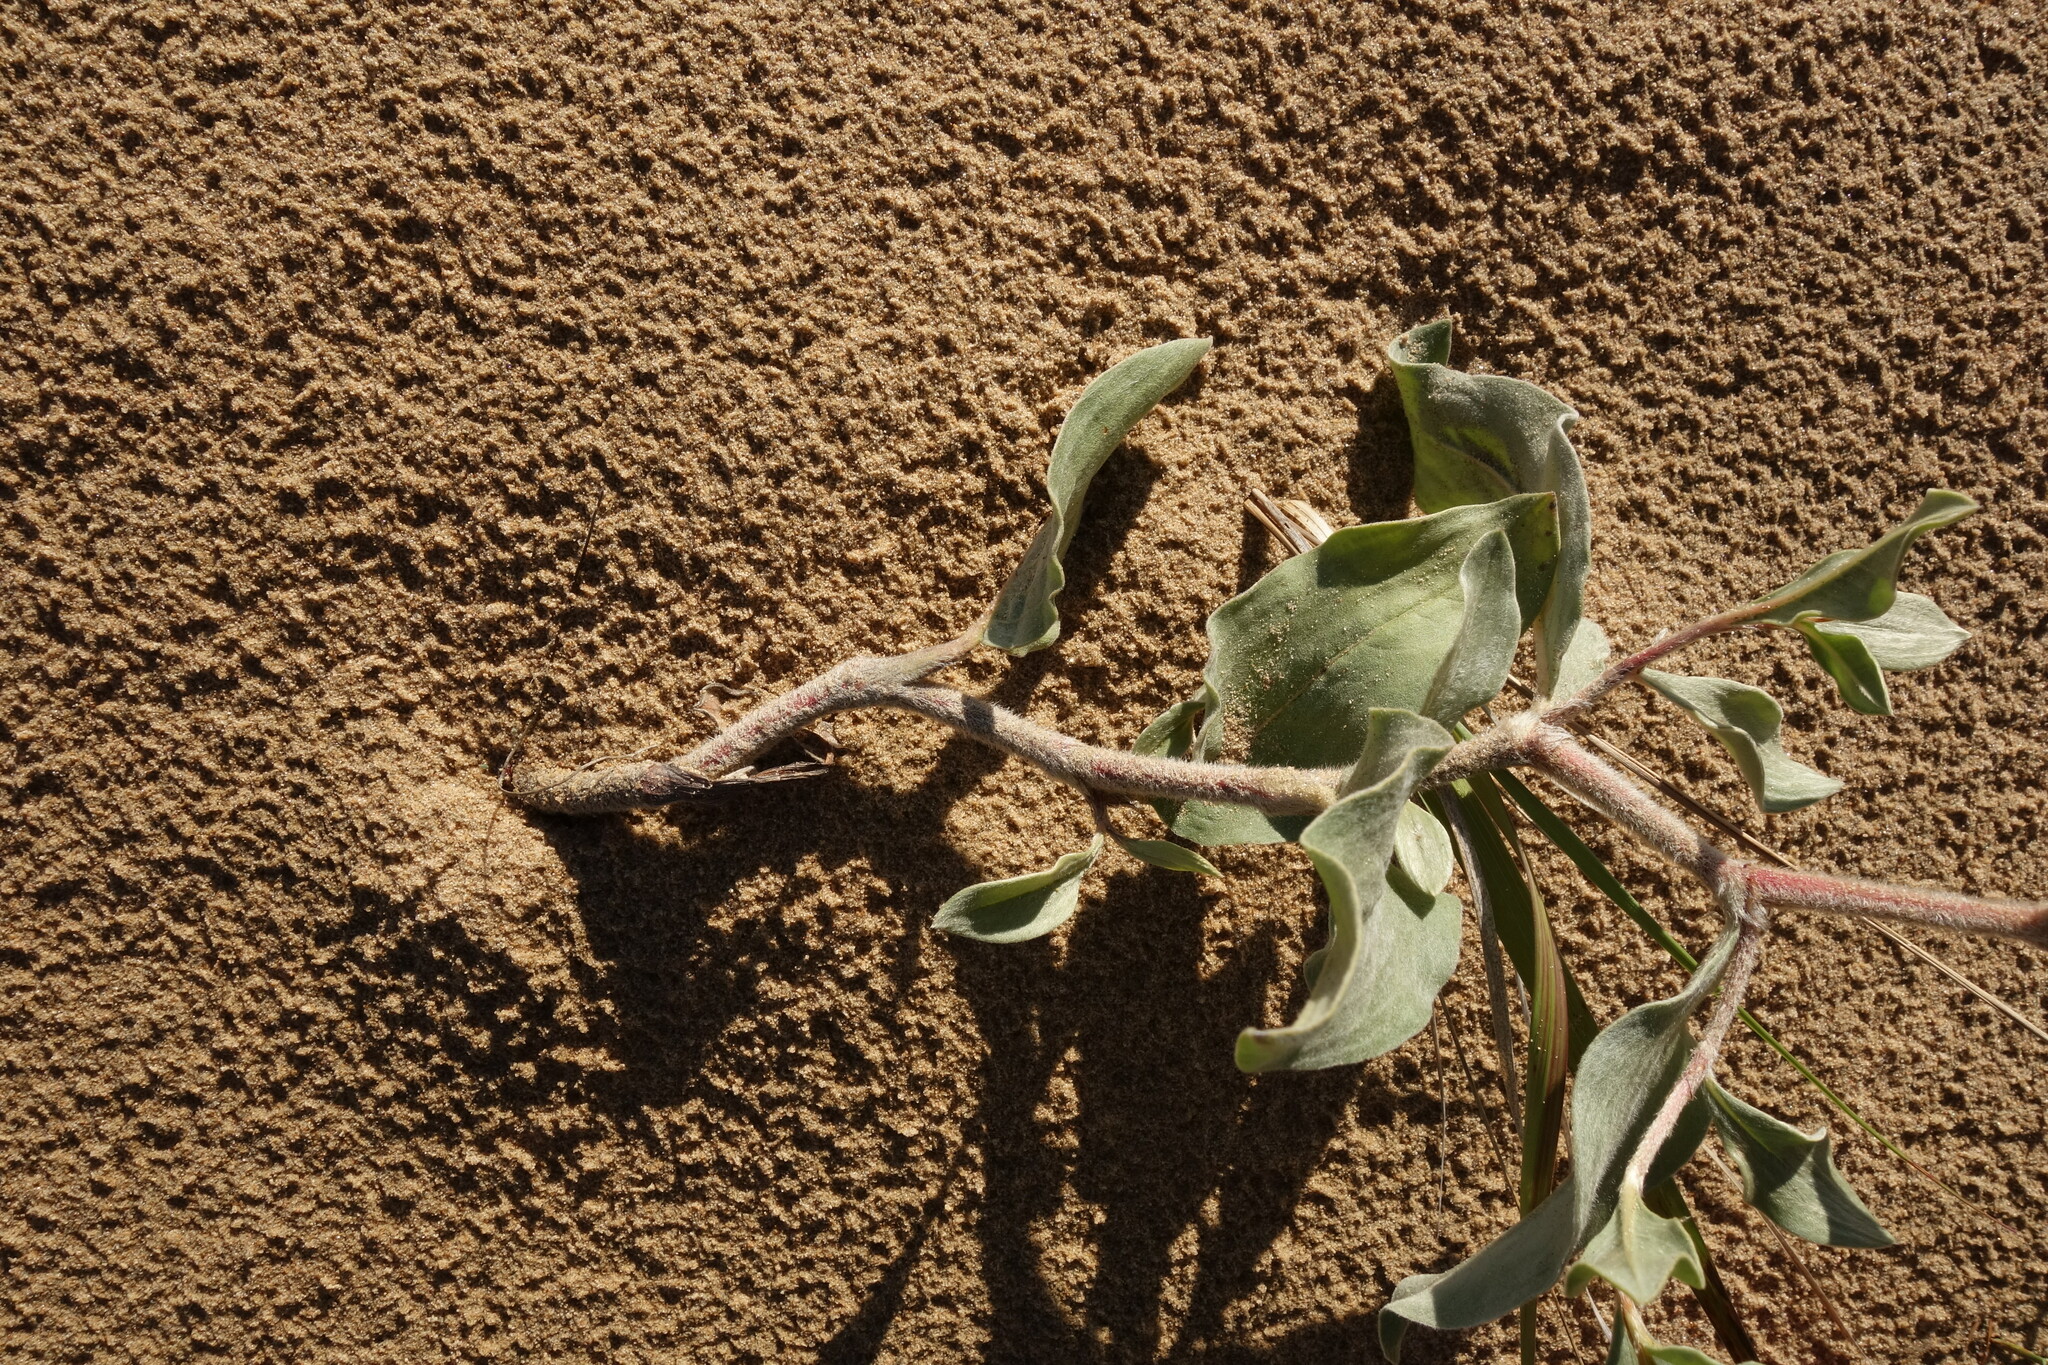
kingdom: Plantae
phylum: Tracheophyta
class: Magnoliopsida
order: Caryophyllales
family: Polygonaceae
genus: Polygonum
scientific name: Polygonum sericeum
